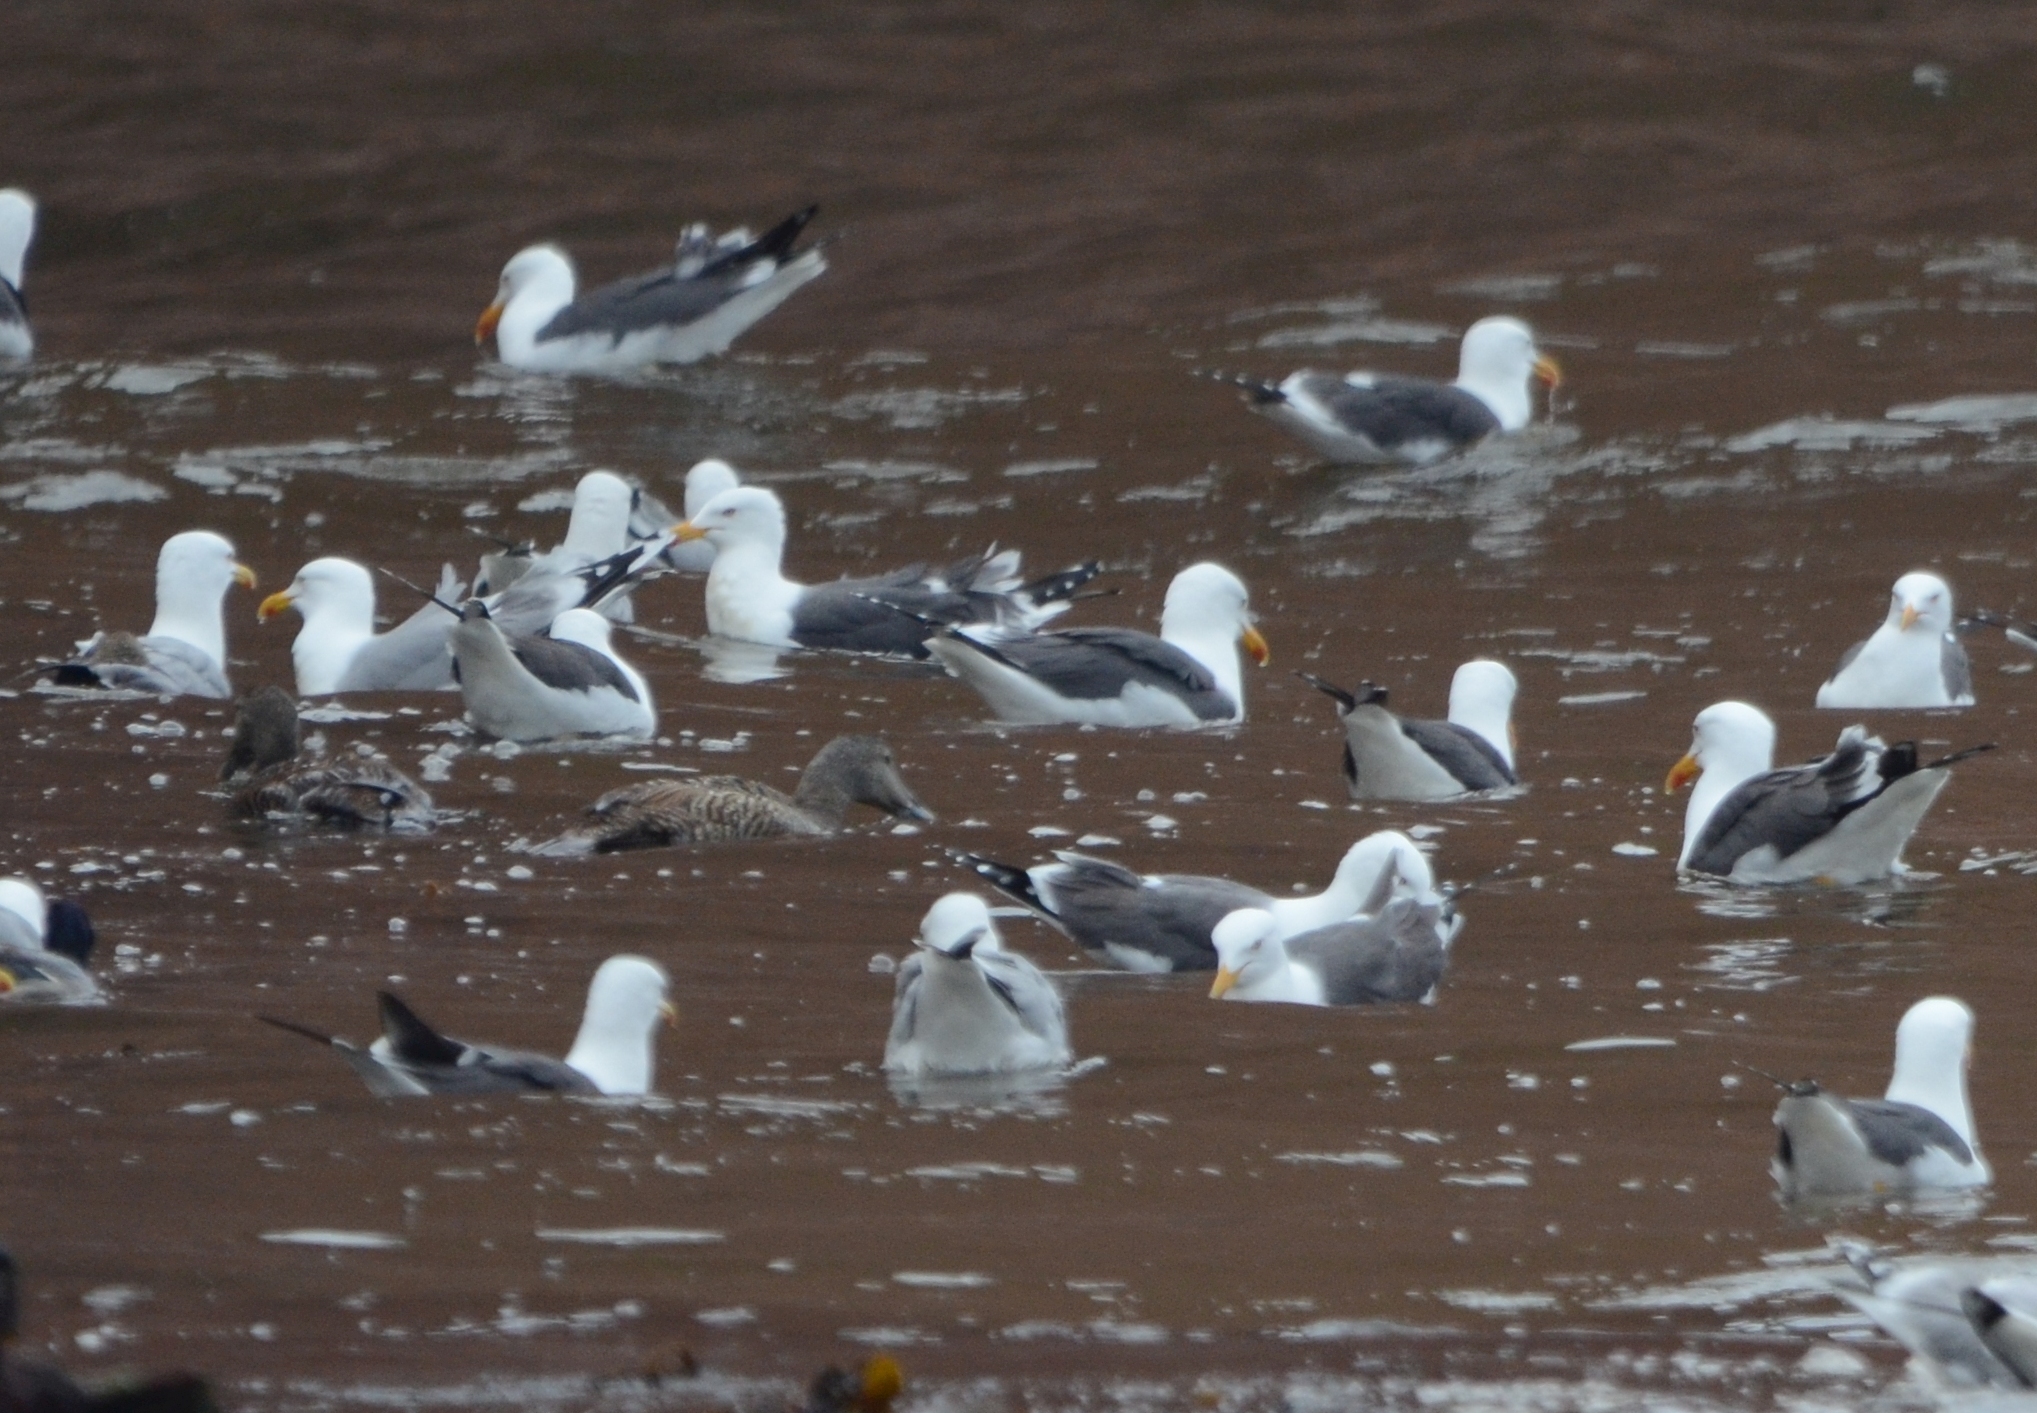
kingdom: Animalia
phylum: Chordata
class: Aves
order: Charadriiformes
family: Laridae
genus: Larus
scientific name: Larus fuscus
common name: Lesser black-backed gull
